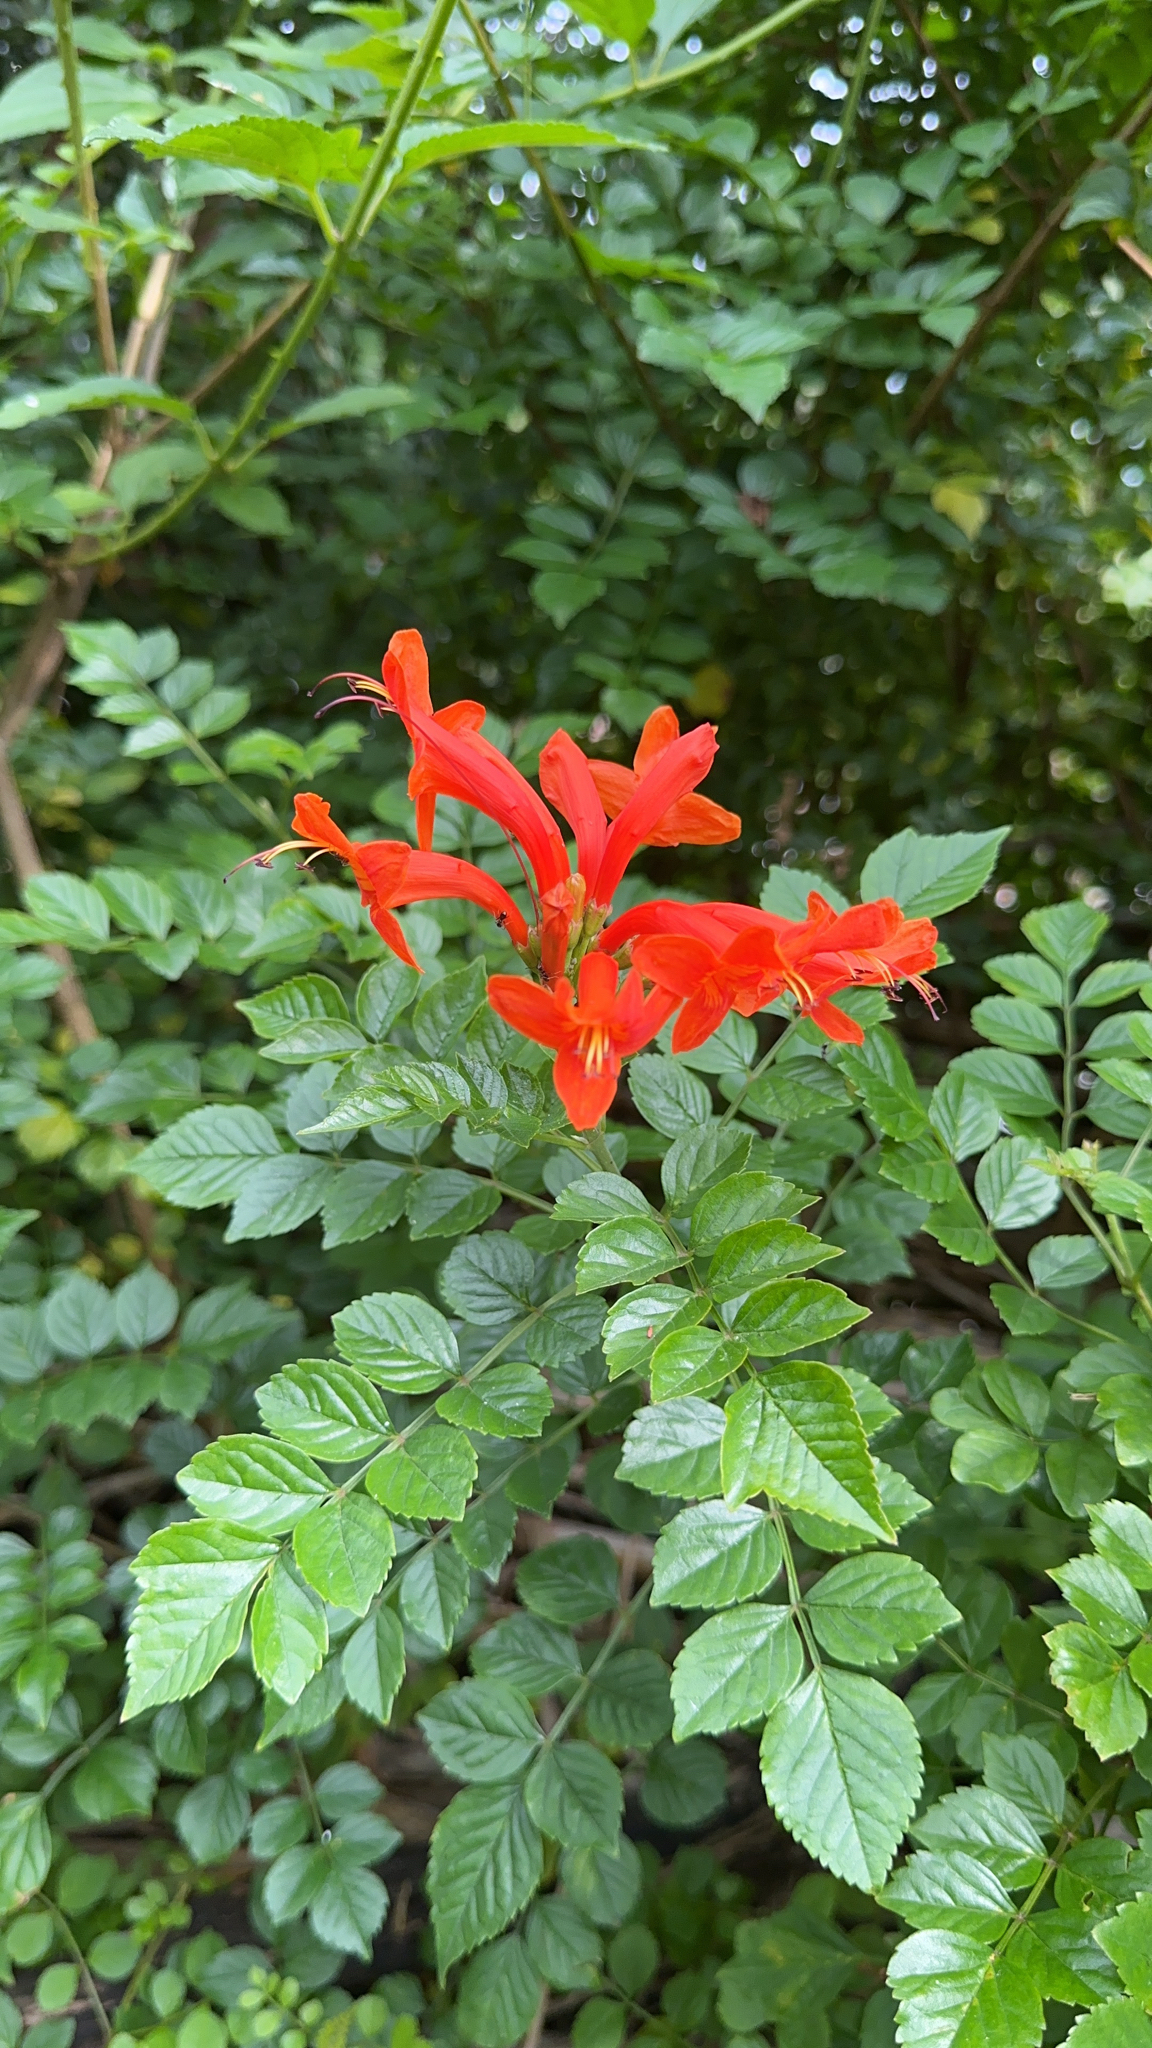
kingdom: Plantae
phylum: Tracheophyta
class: Magnoliopsida
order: Lamiales
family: Bignoniaceae
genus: Tecomaria
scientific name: Tecomaria capensis
